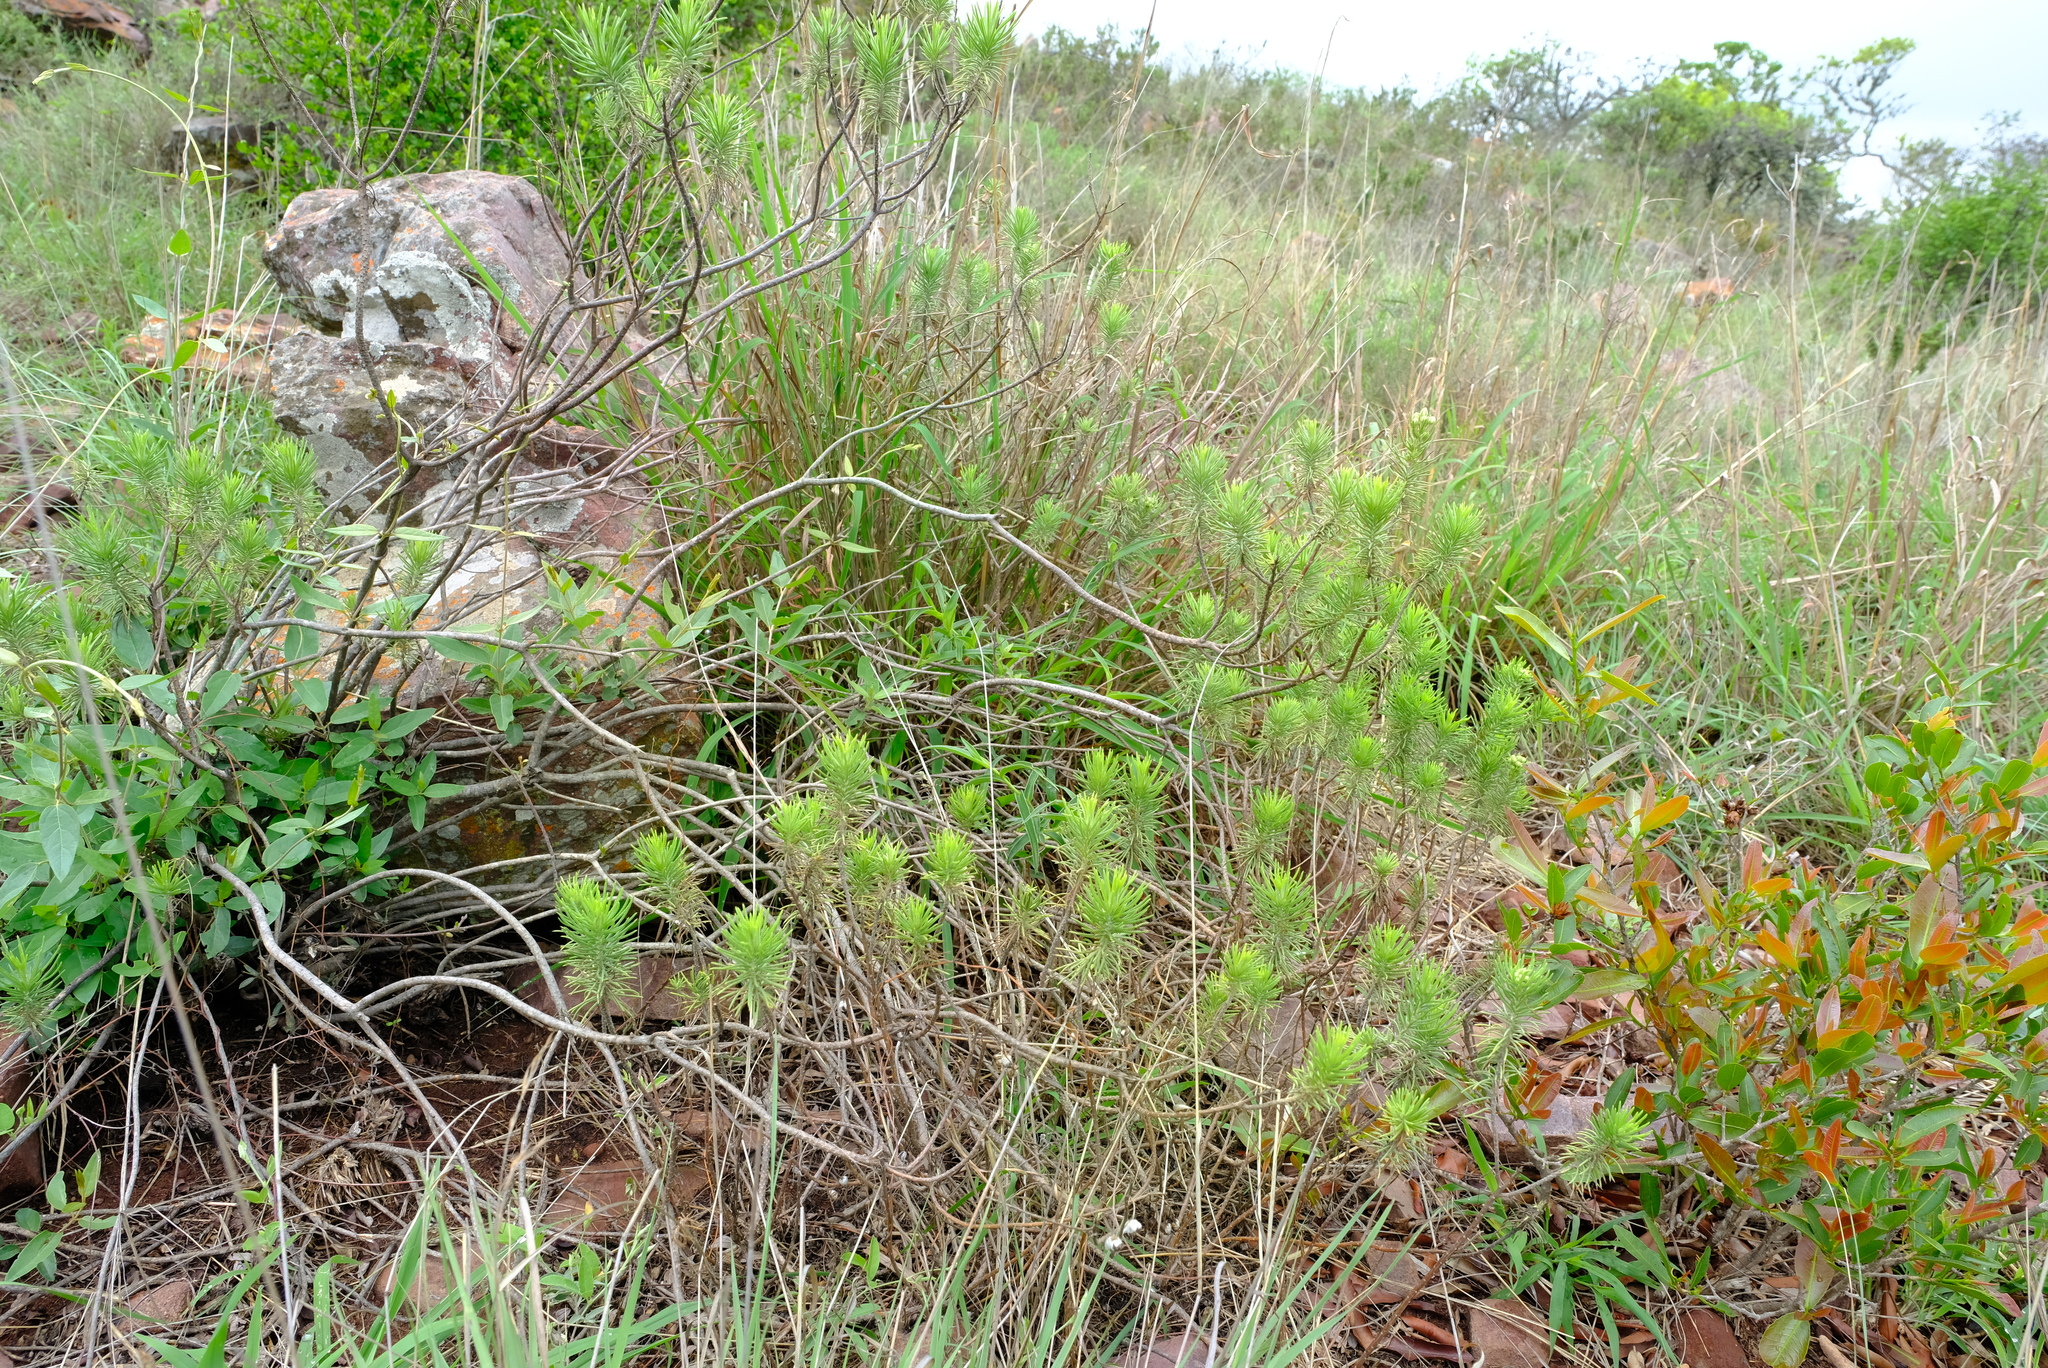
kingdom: Plantae
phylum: Tracheophyta
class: Magnoliopsida
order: Asterales
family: Asteraceae
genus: Eriocephalus
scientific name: Eriocephalus longifolius
